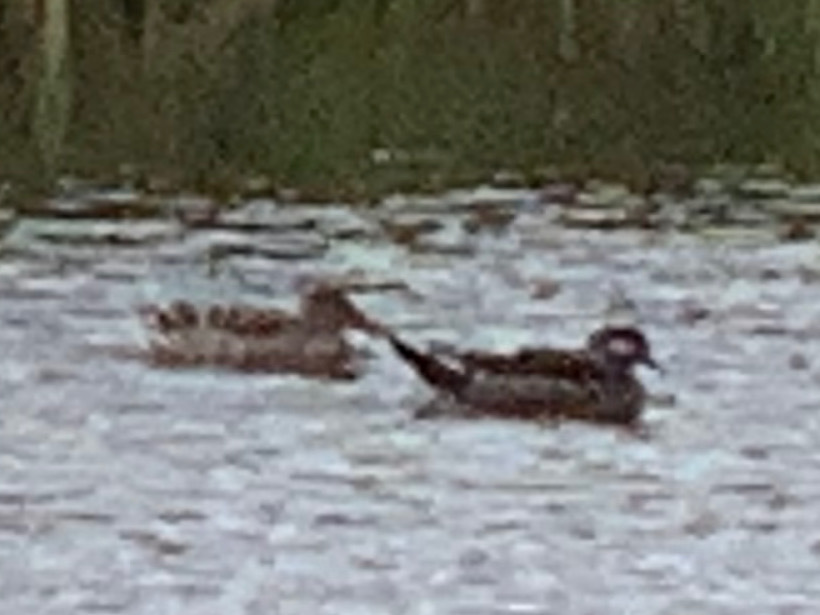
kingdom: Animalia
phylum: Chordata
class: Aves
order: Anseriformes
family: Anatidae
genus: Aix
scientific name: Aix sponsa
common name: Wood duck
